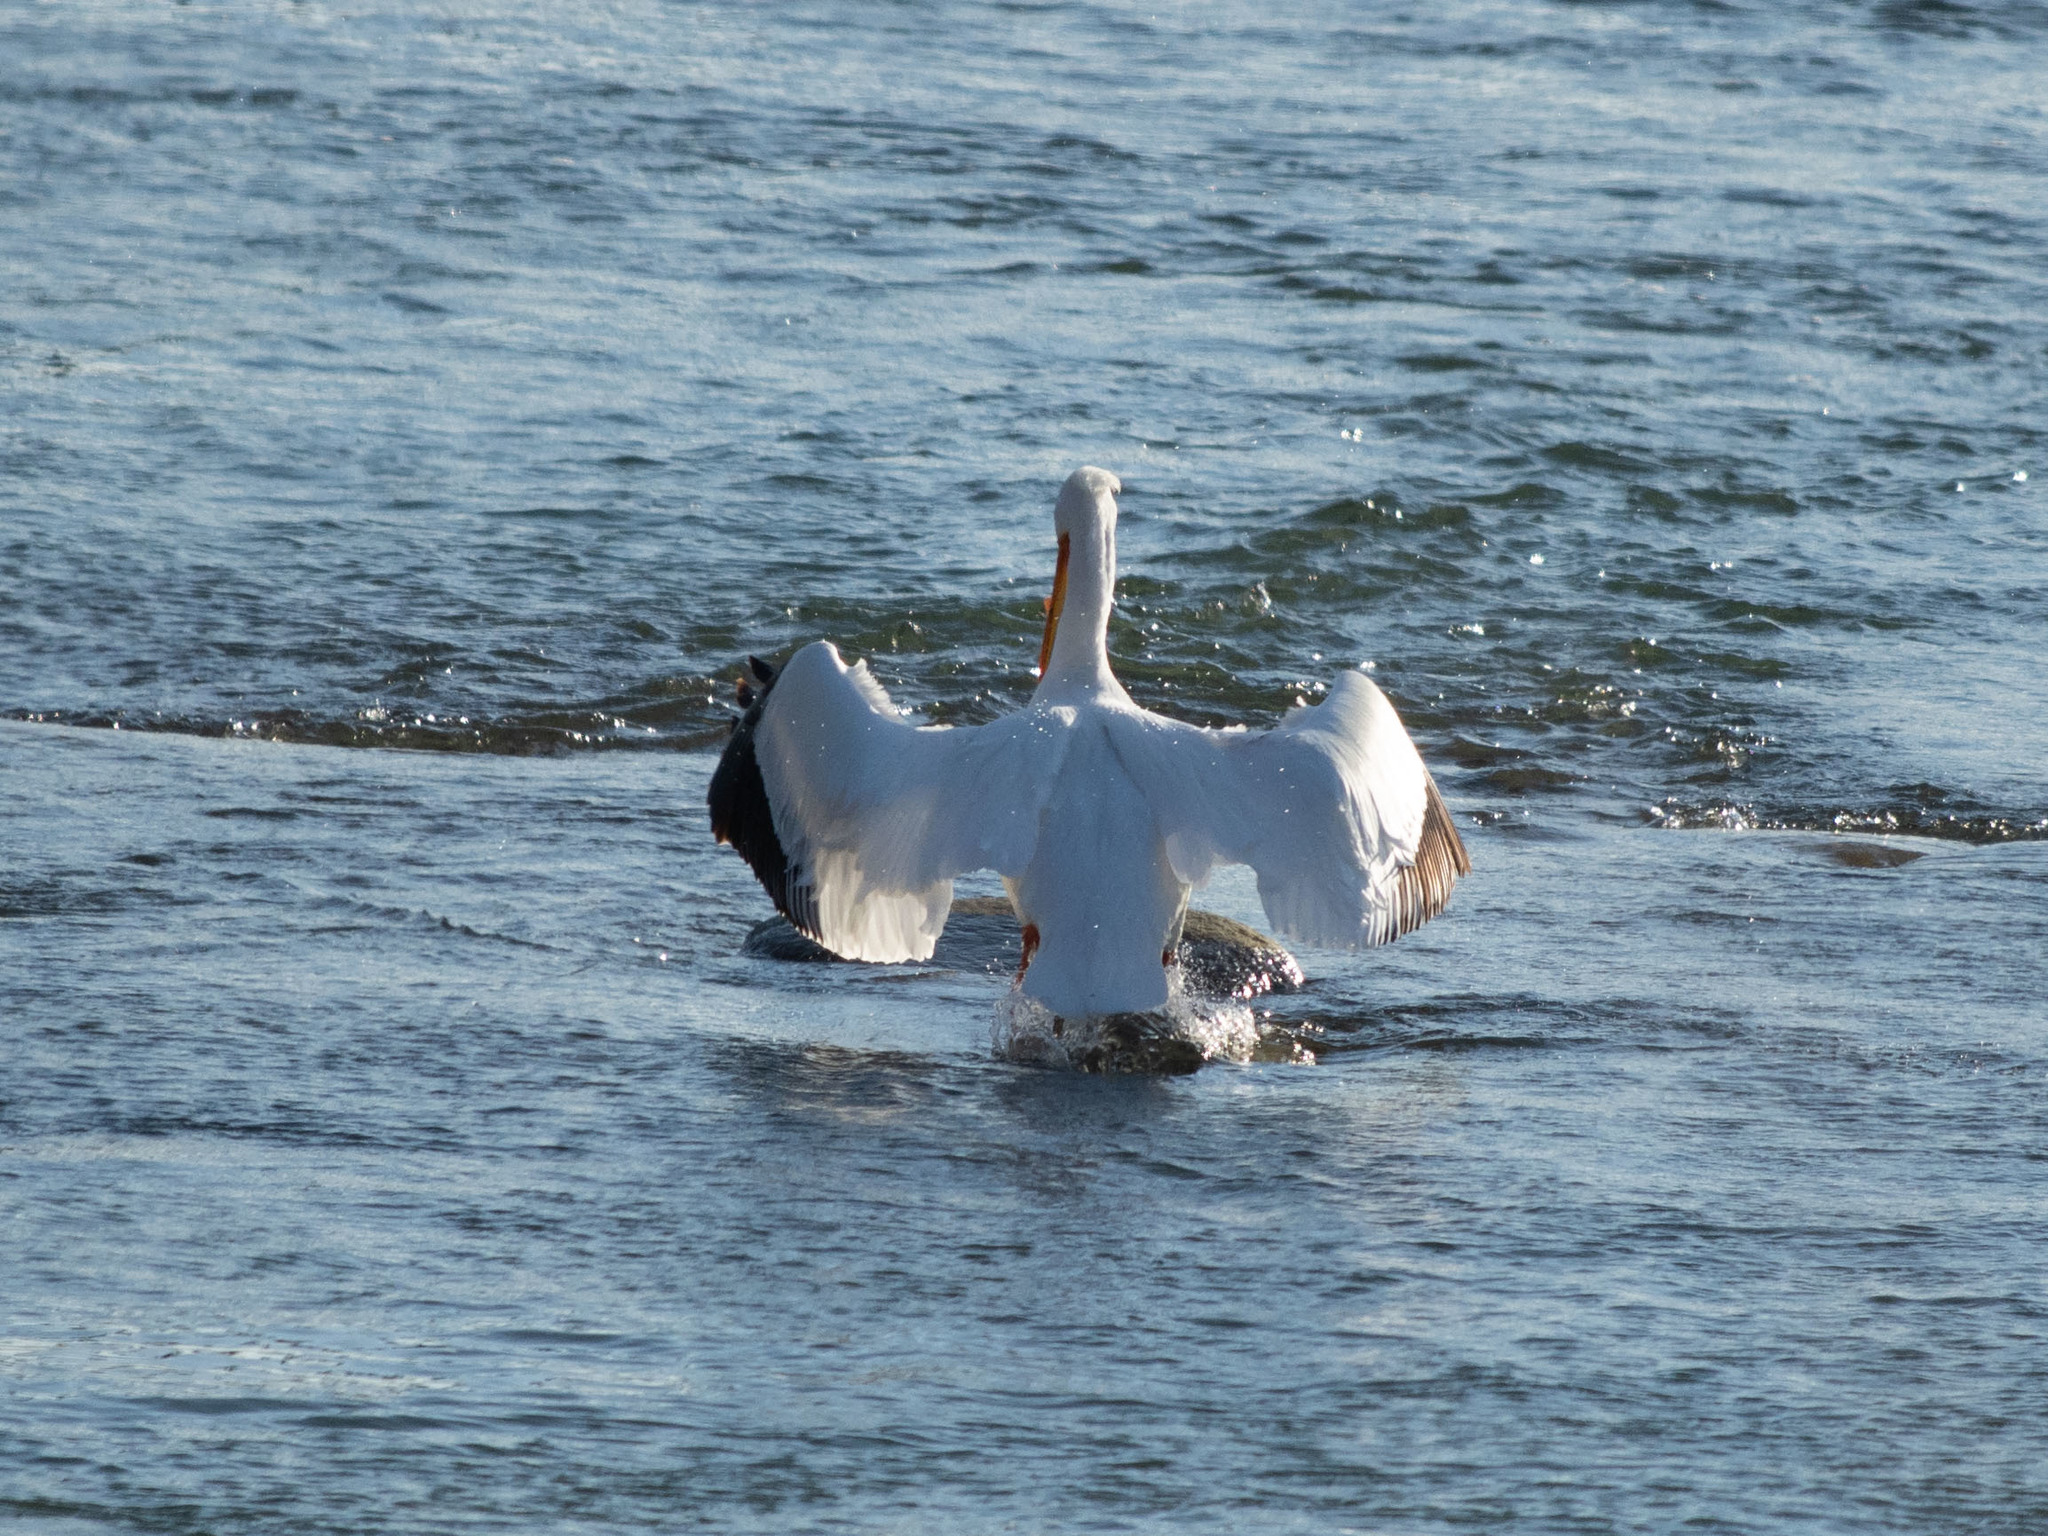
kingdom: Animalia
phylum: Chordata
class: Aves
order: Pelecaniformes
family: Pelecanidae
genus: Pelecanus
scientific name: Pelecanus erythrorhynchos
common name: American white pelican
